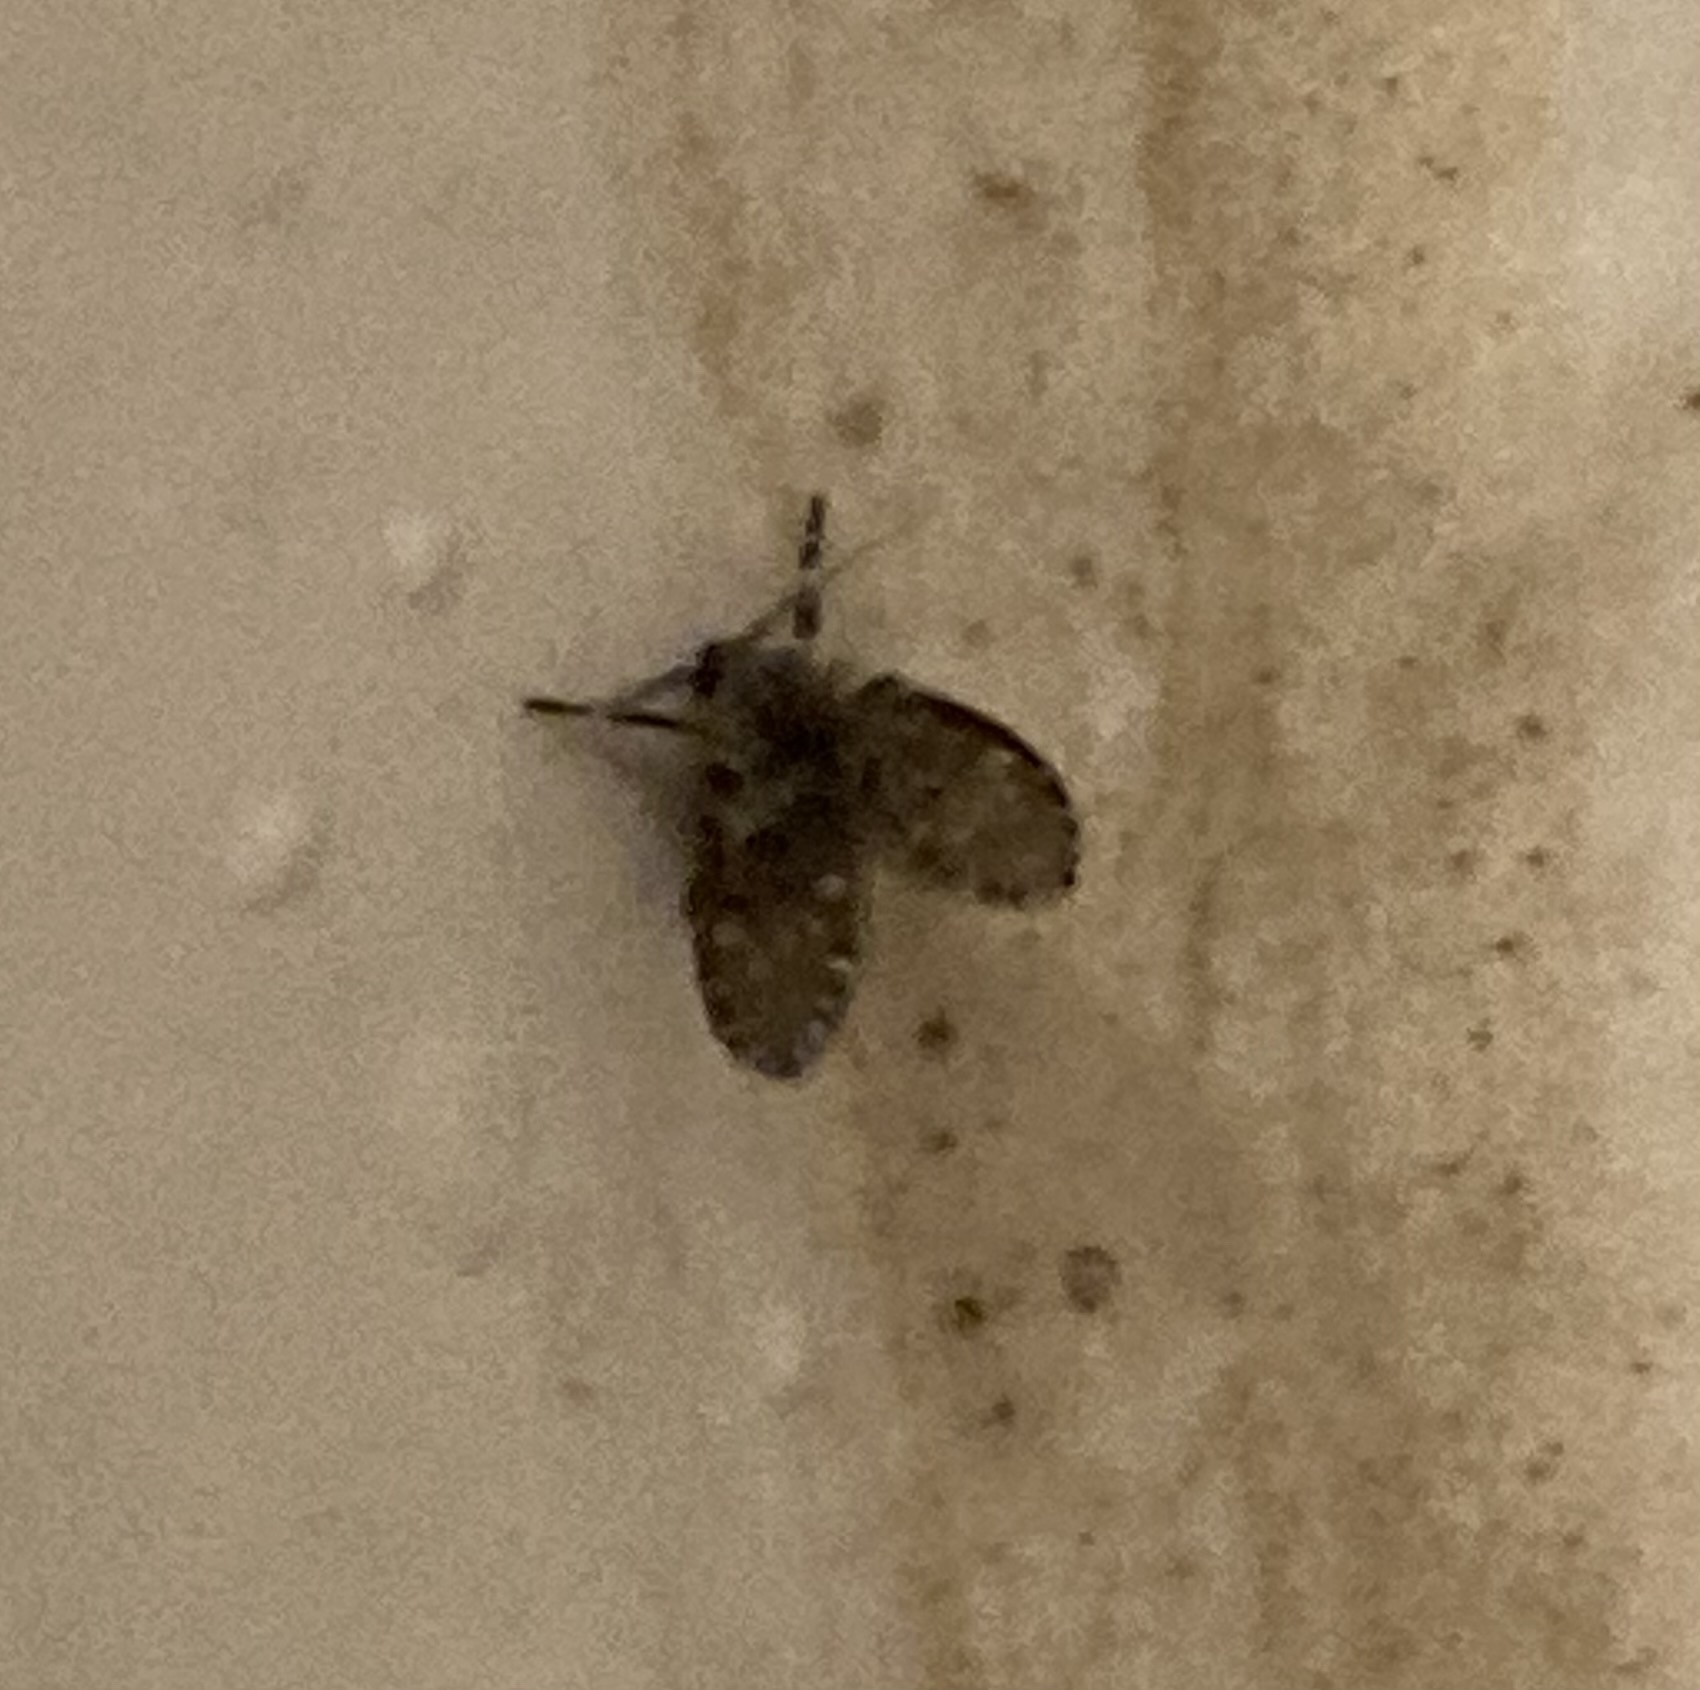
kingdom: Animalia
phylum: Arthropoda
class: Insecta
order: Diptera
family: Psychodidae
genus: Clogmia
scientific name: Clogmia albipunctatus
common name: White-spotted moth fly
